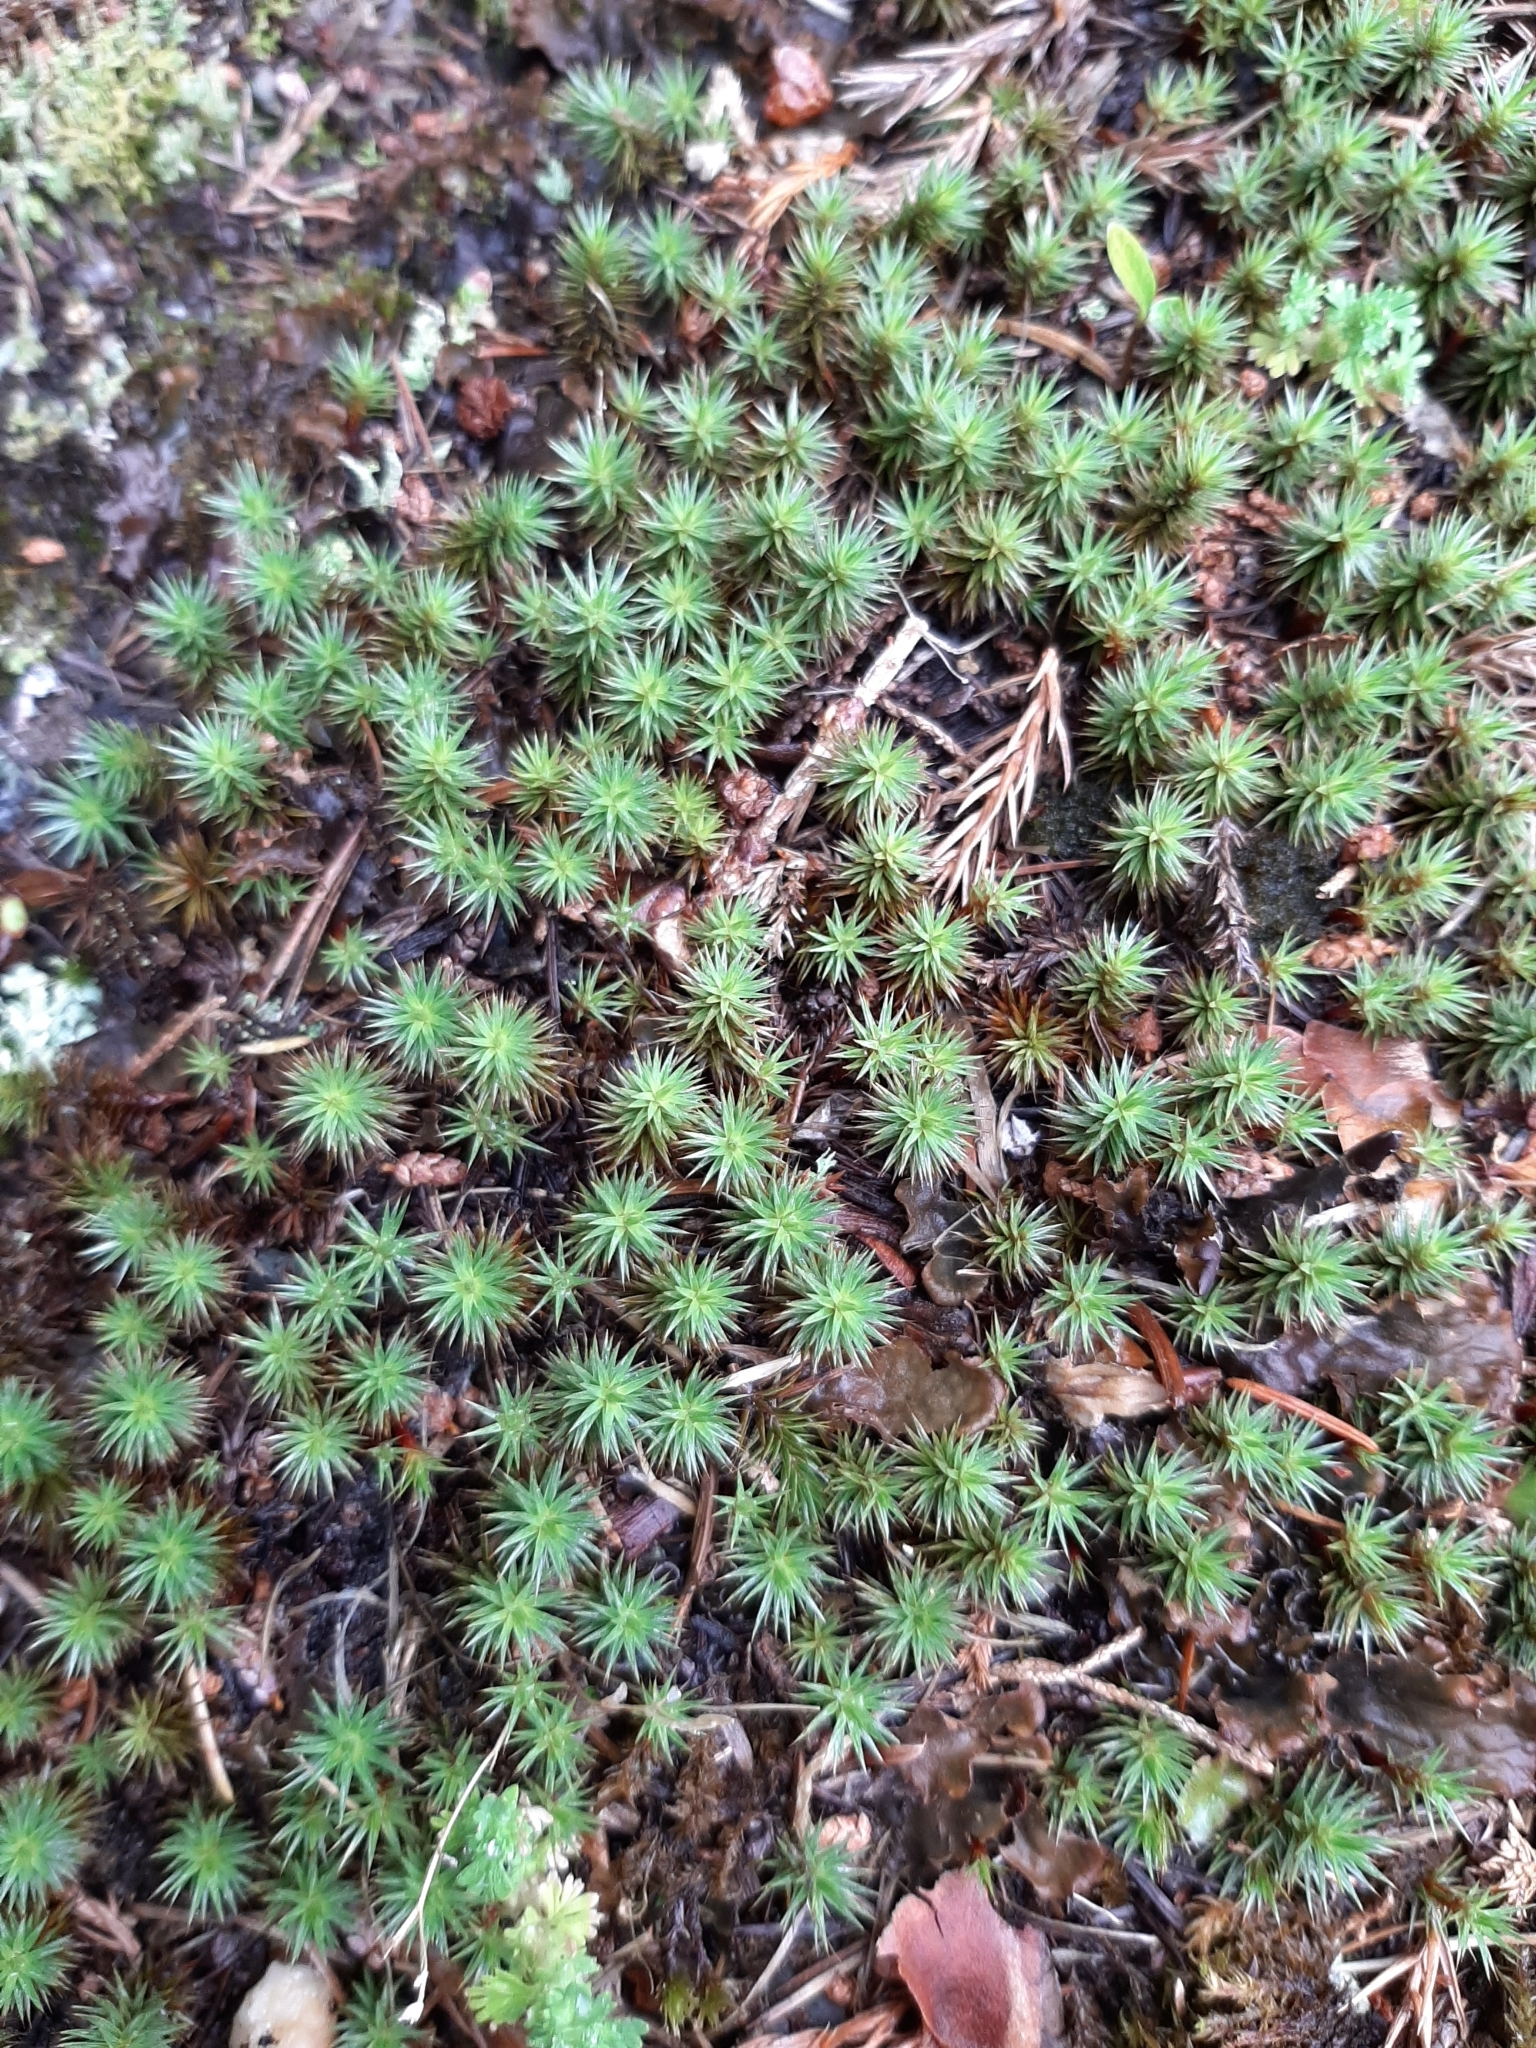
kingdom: Plantae
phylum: Bryophyta
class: Polytrichopsida
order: Polytrichales
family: Polytrichaceae
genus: Polytrichum
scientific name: Polytrichum juniperinum
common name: Juniper haircap moss
